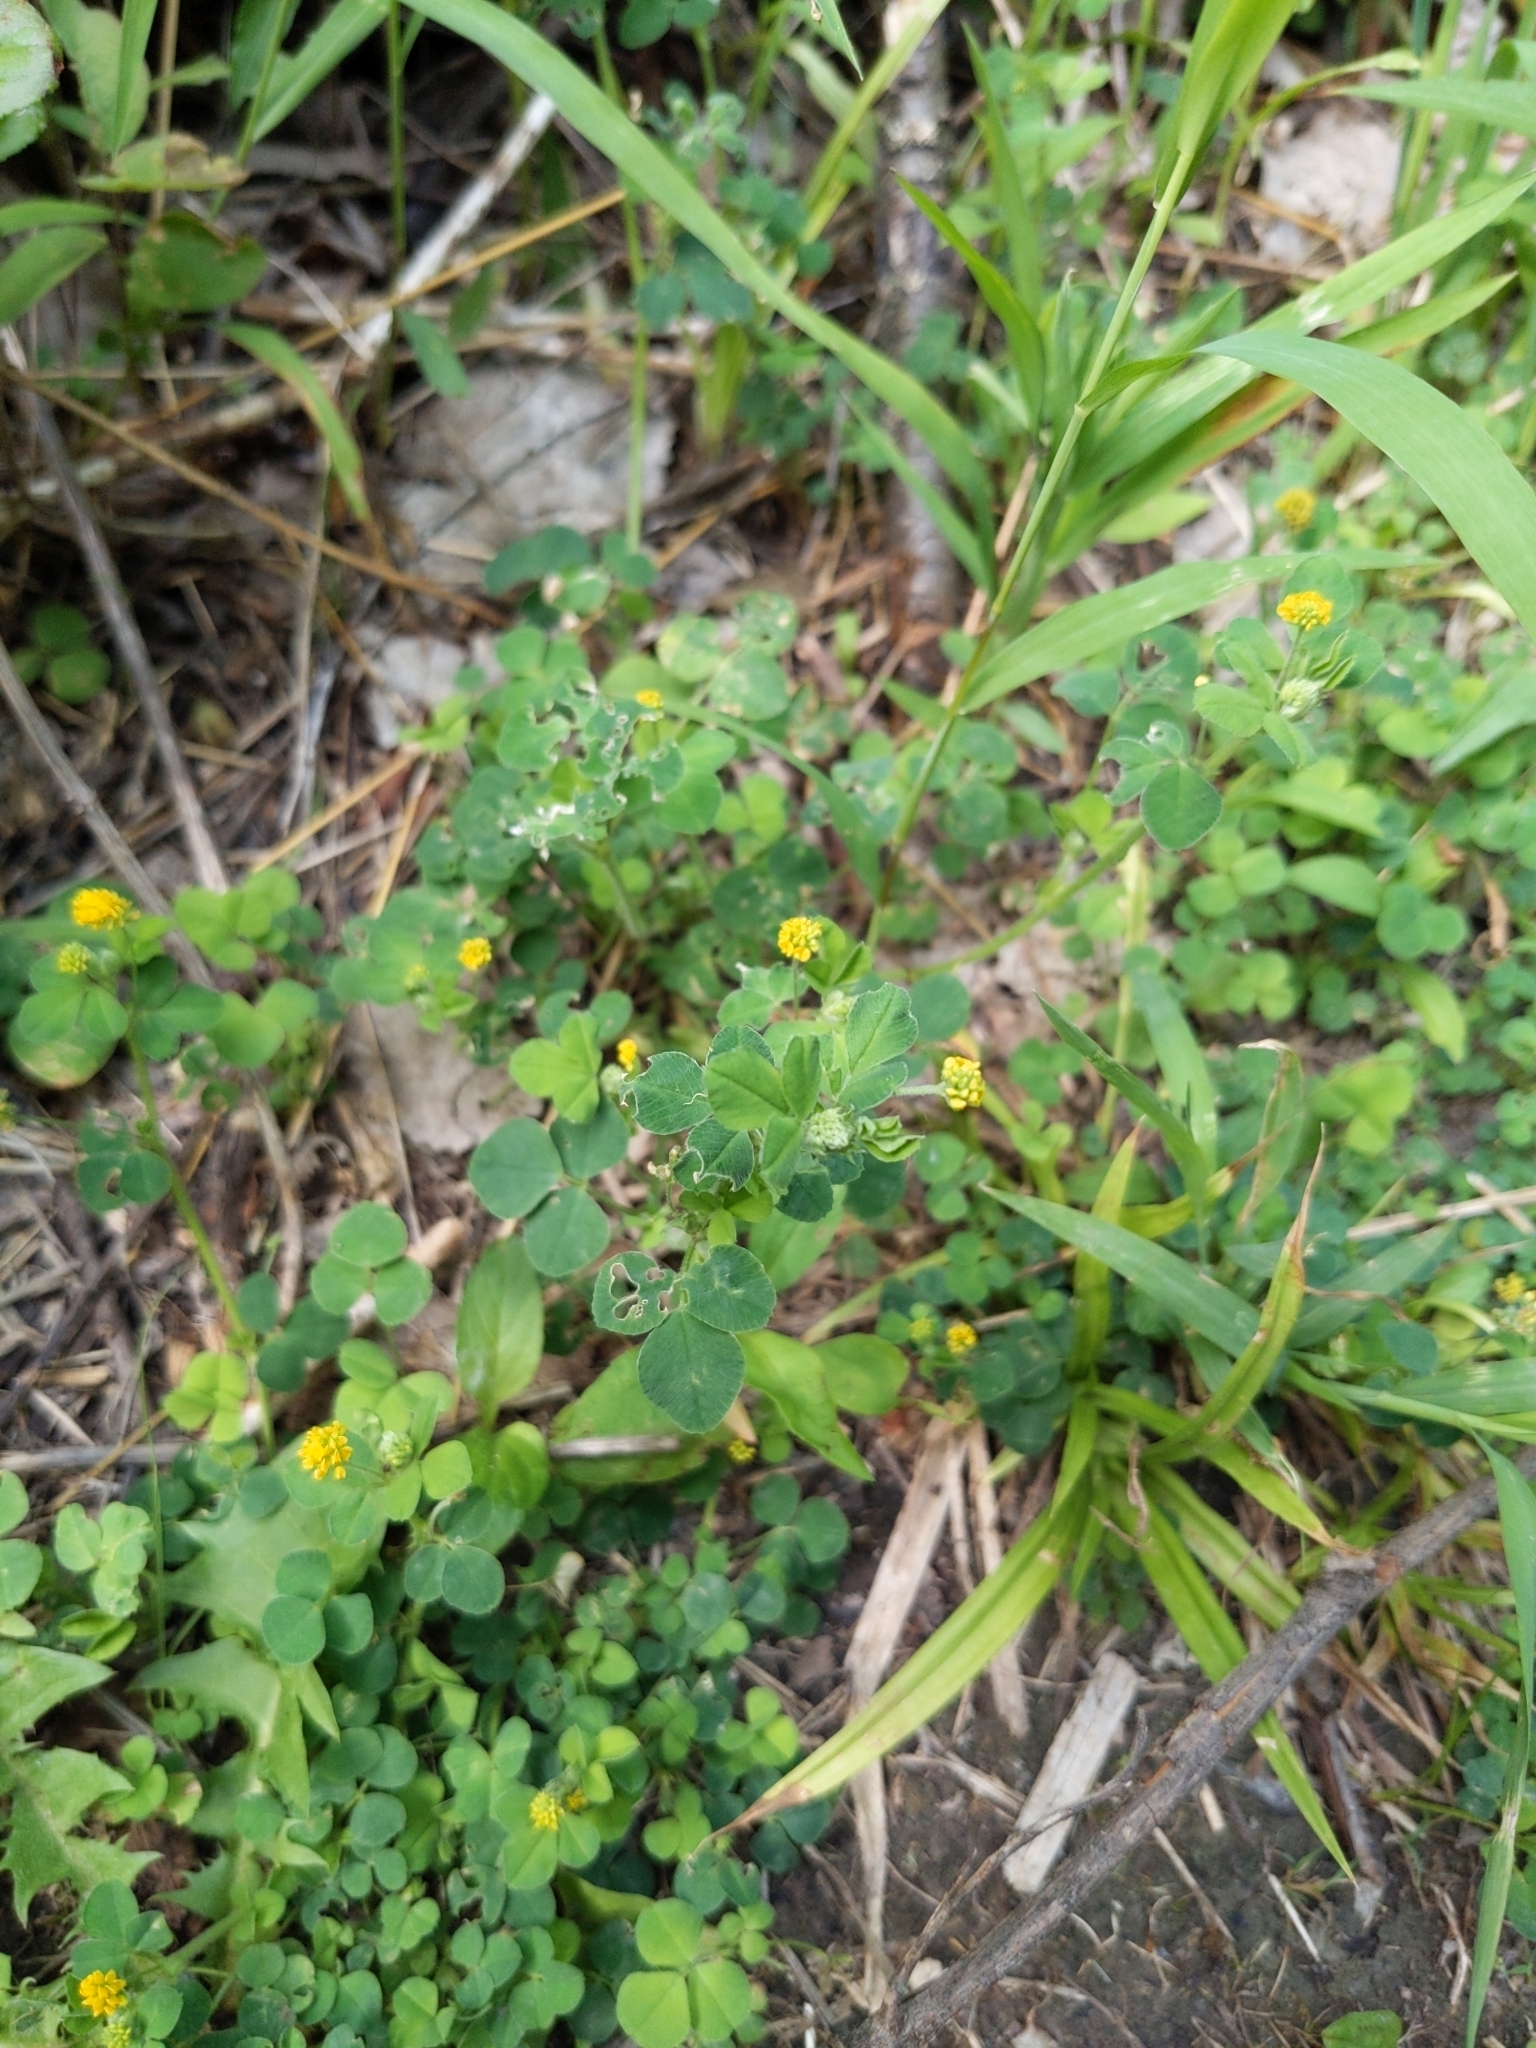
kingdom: Plantae
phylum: Tracheophyta
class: Magnoliopsida
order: Fabales
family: Fabaceae
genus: Medicago
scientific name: Medicago lupulina
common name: Black medick
